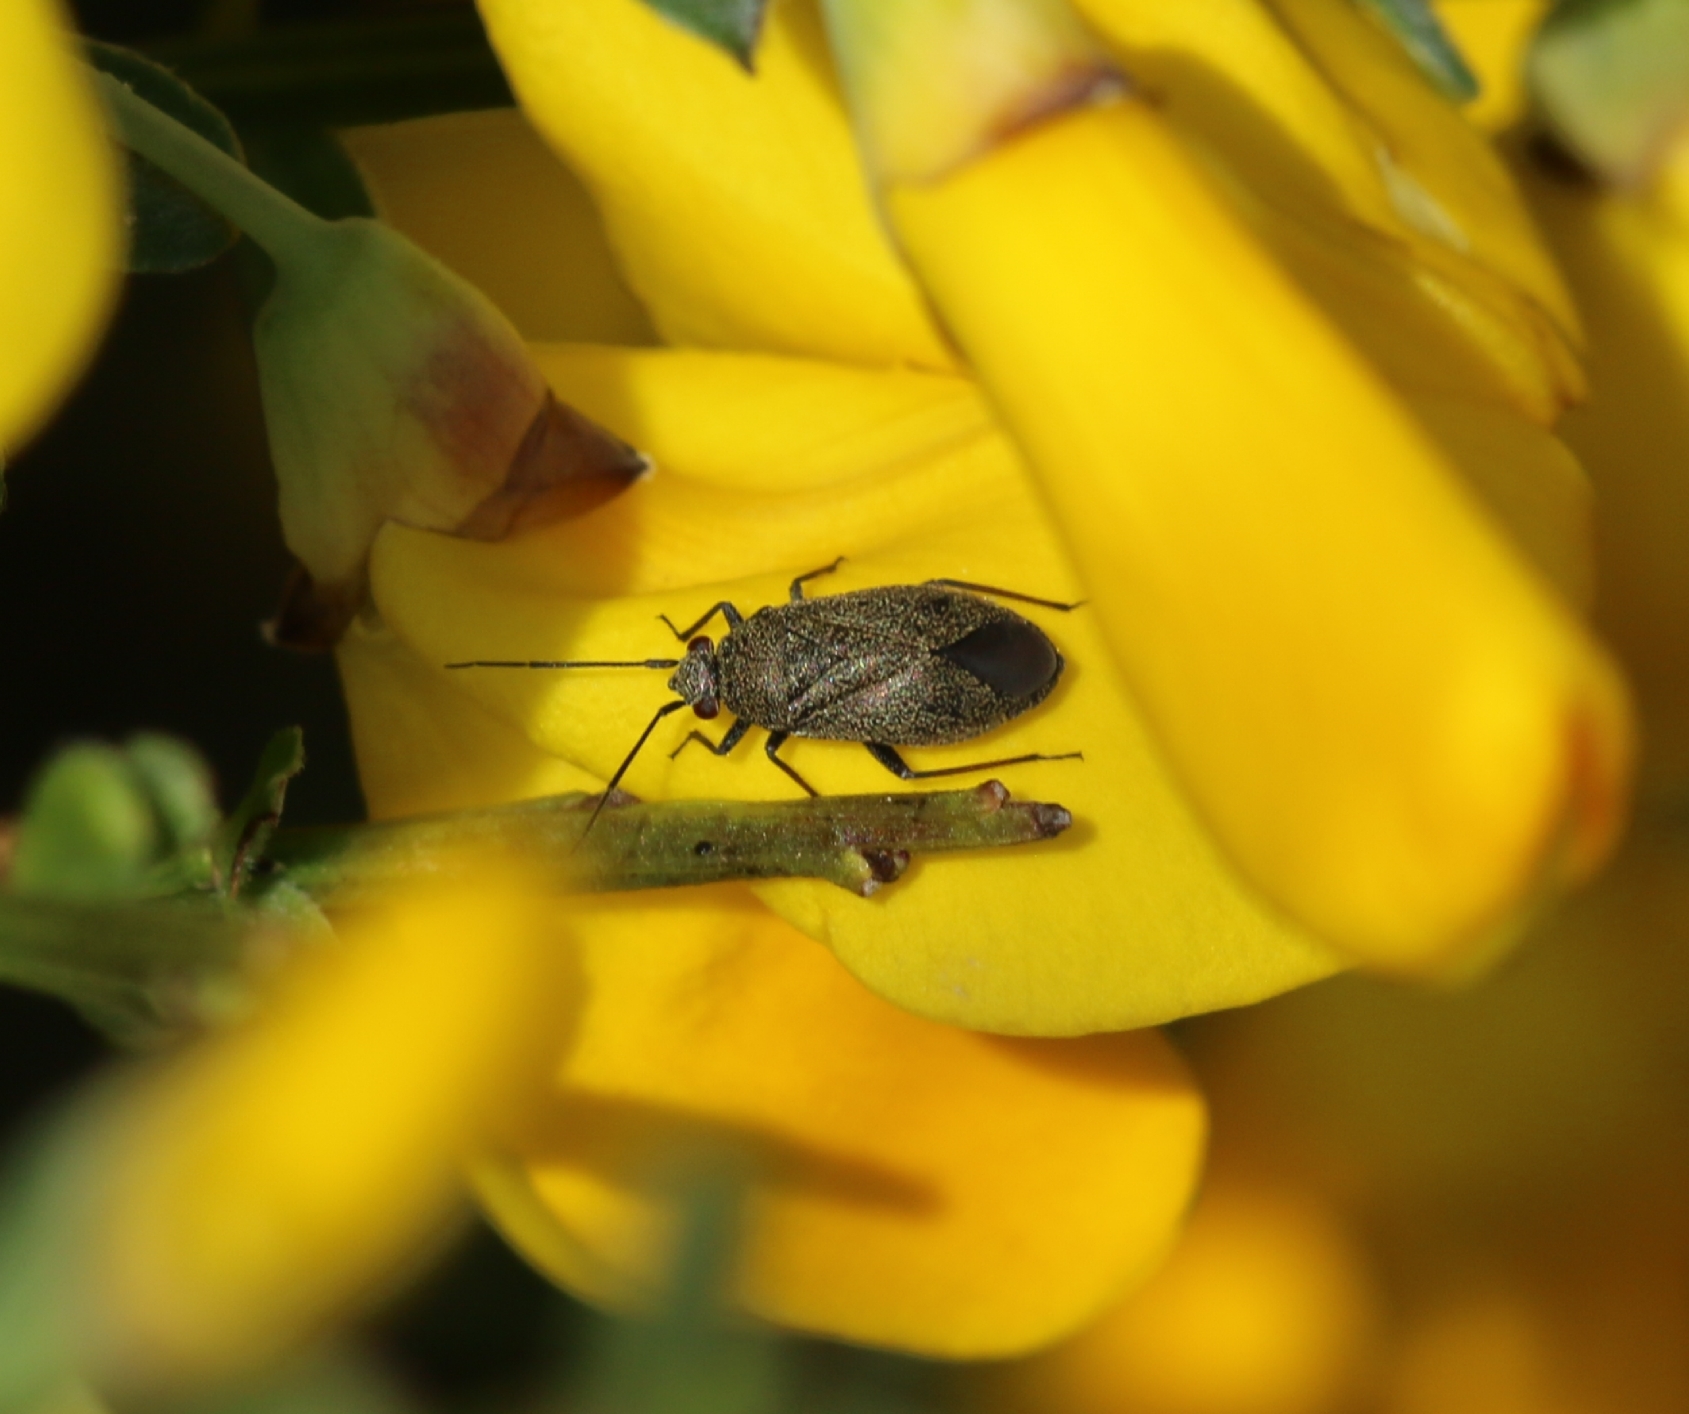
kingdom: Animalia
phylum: Arthropoda
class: Insecta
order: Hemiptera
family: Miridae
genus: Heterocordylus
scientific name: Heterocordylus tibialis
